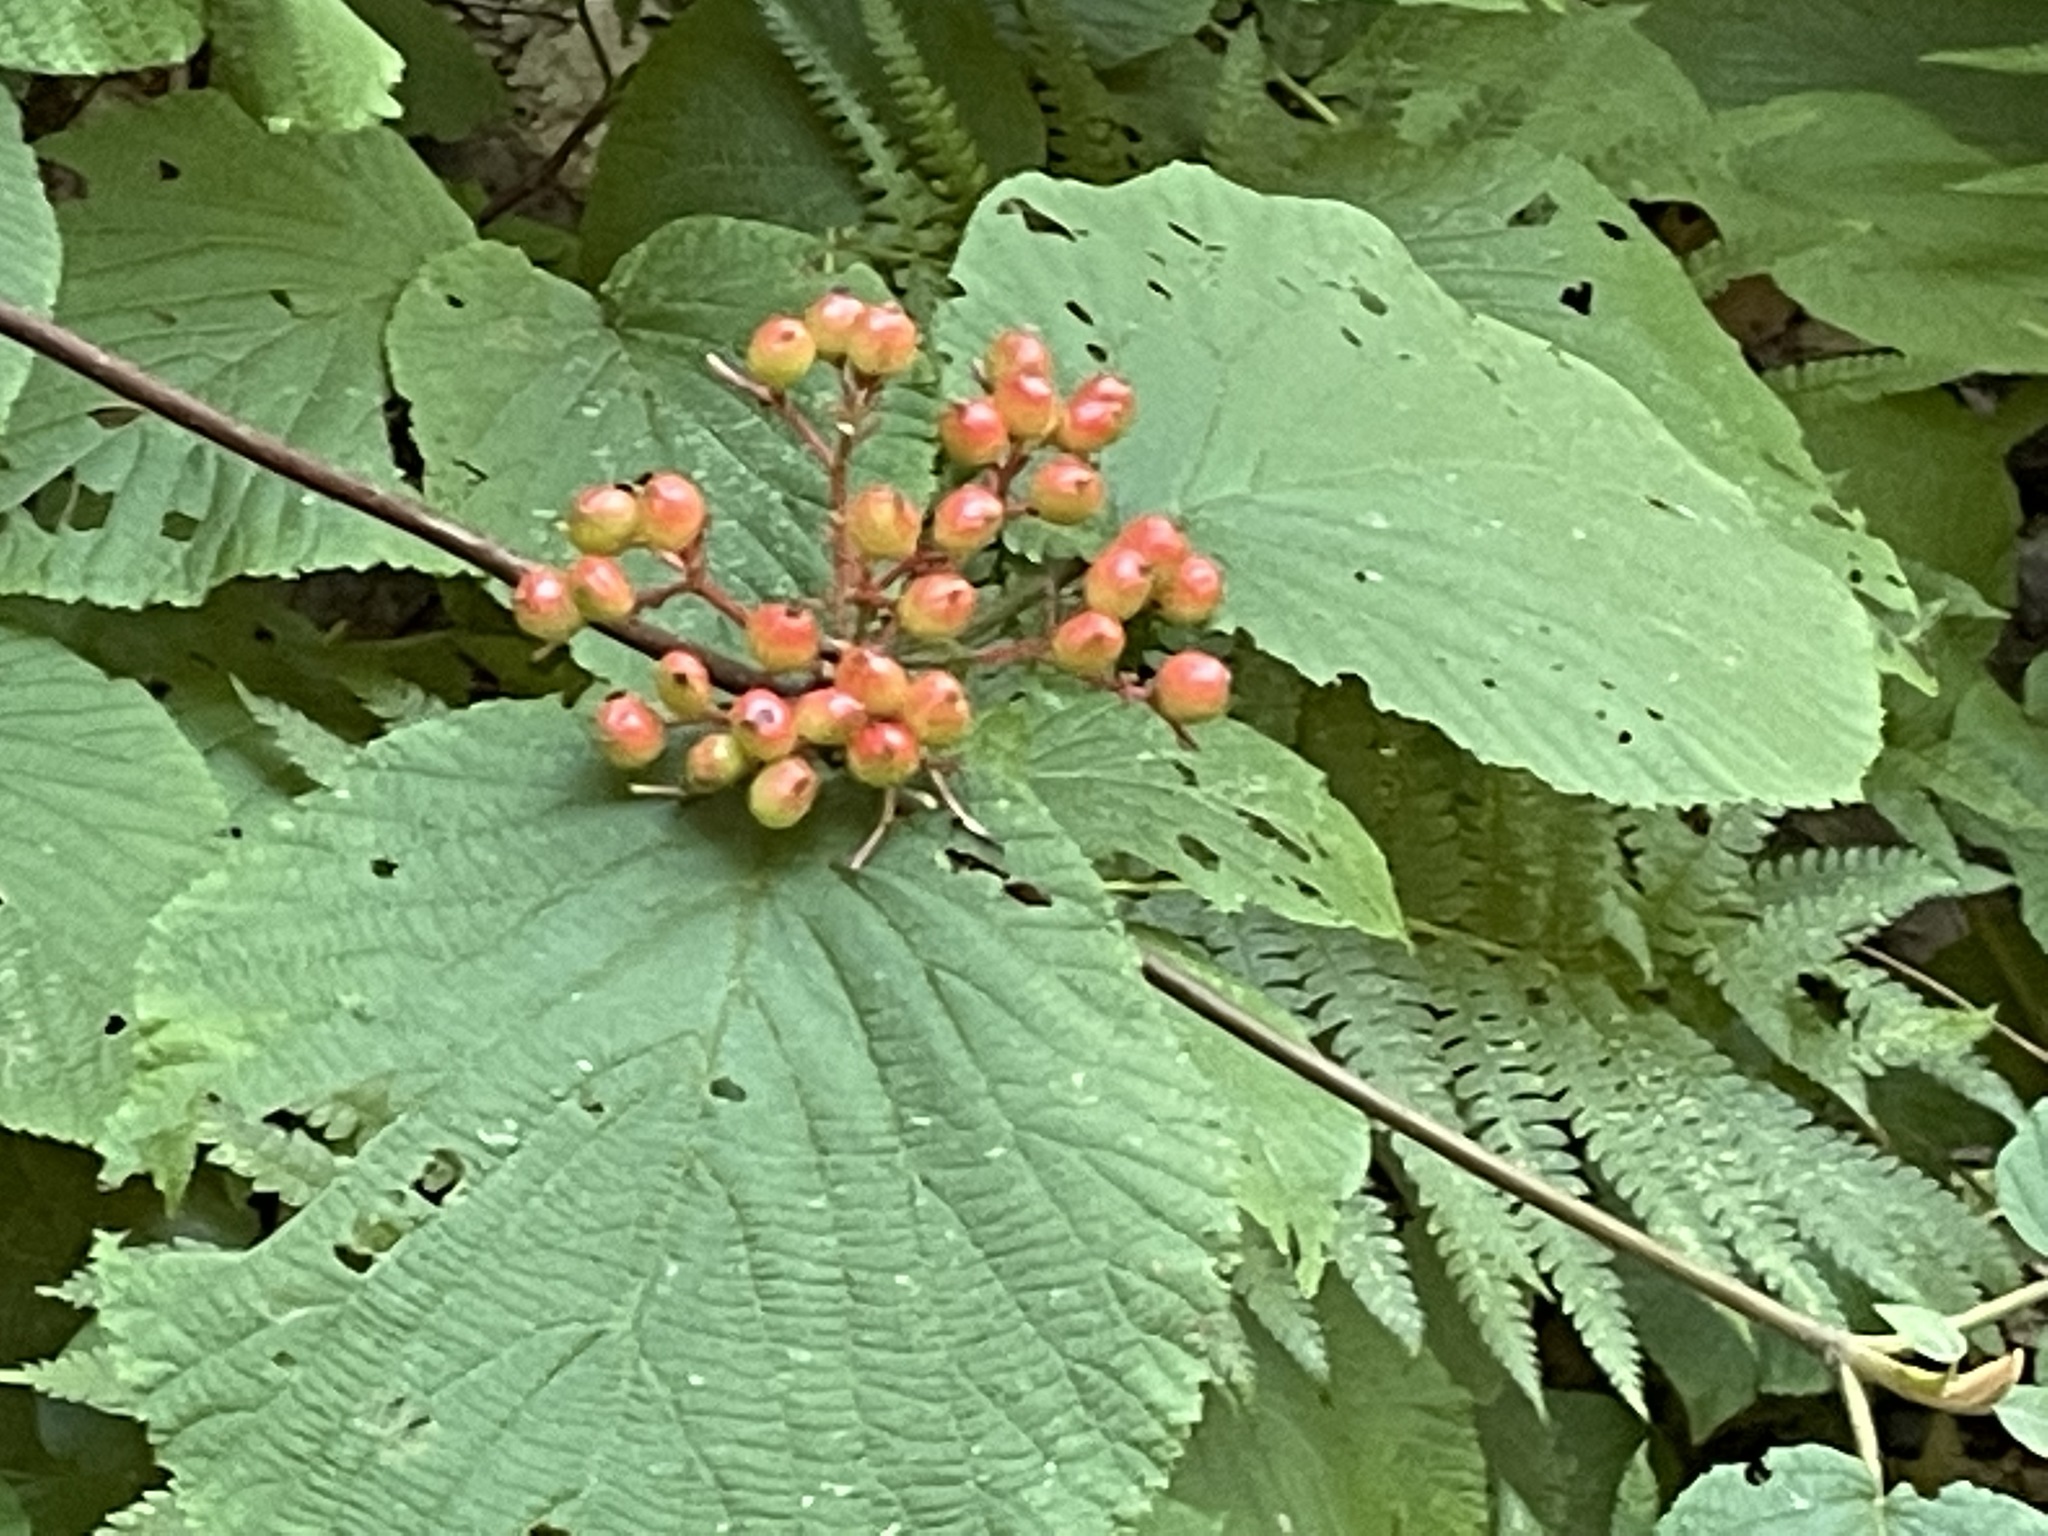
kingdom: Plantae
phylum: Tracheophyta
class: Magnoliopsida
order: Dipsacales
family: Viburnaceae
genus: Viburnum
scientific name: Viburnum lantanoides
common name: Hobblebush
